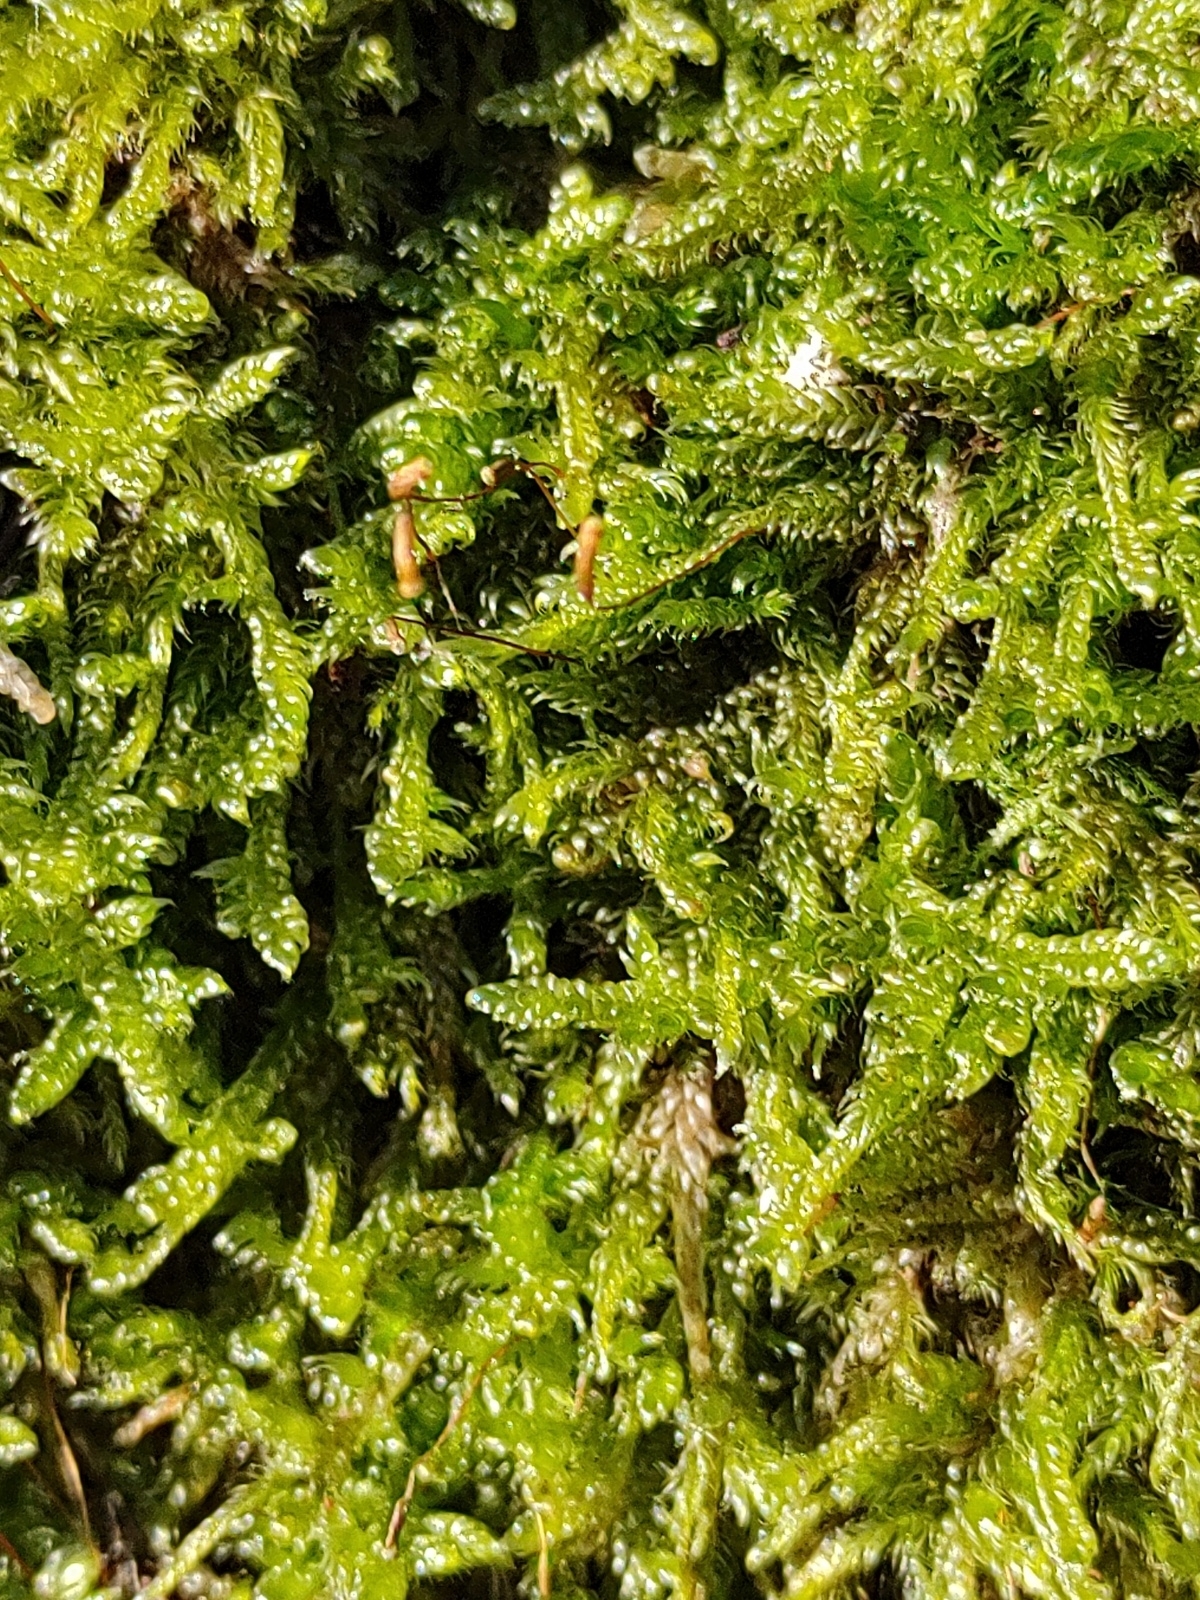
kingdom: Plantae
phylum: Bryophyta
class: Bryopsida
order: Hypnales
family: Hypnaceae
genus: Hypnum
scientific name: Hypnum cupressiforme
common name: Cypress-leaved plait-moss
